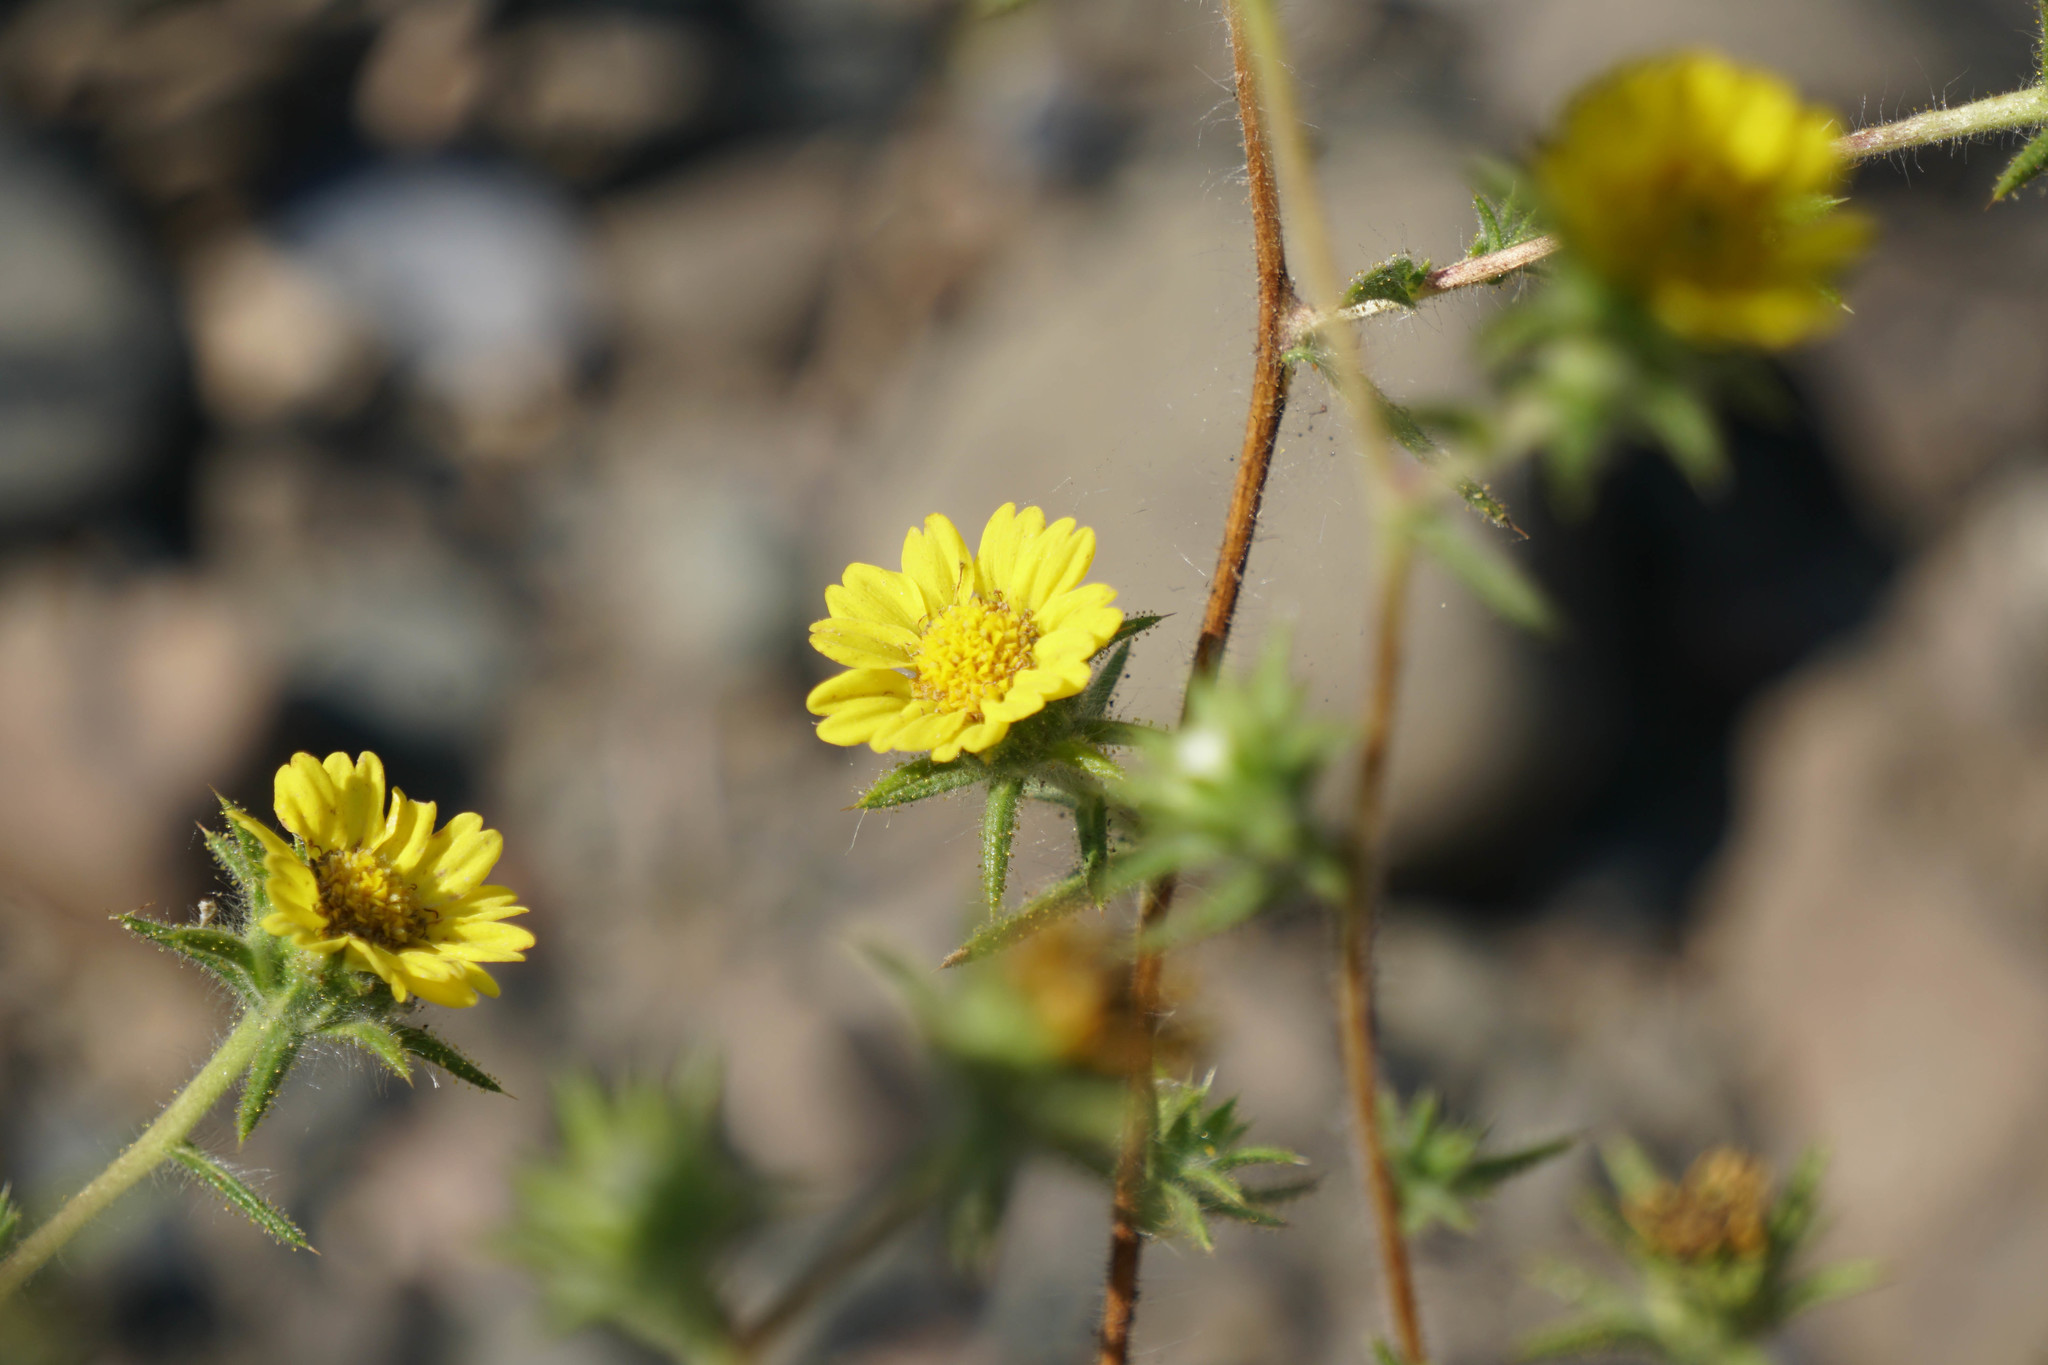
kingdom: Plantae
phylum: Tracheophyta
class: Magnoliopsida
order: Asterales
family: Asteraceae
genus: Centromadia
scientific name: Centromadia fitchii
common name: Fitch's spikeweed
